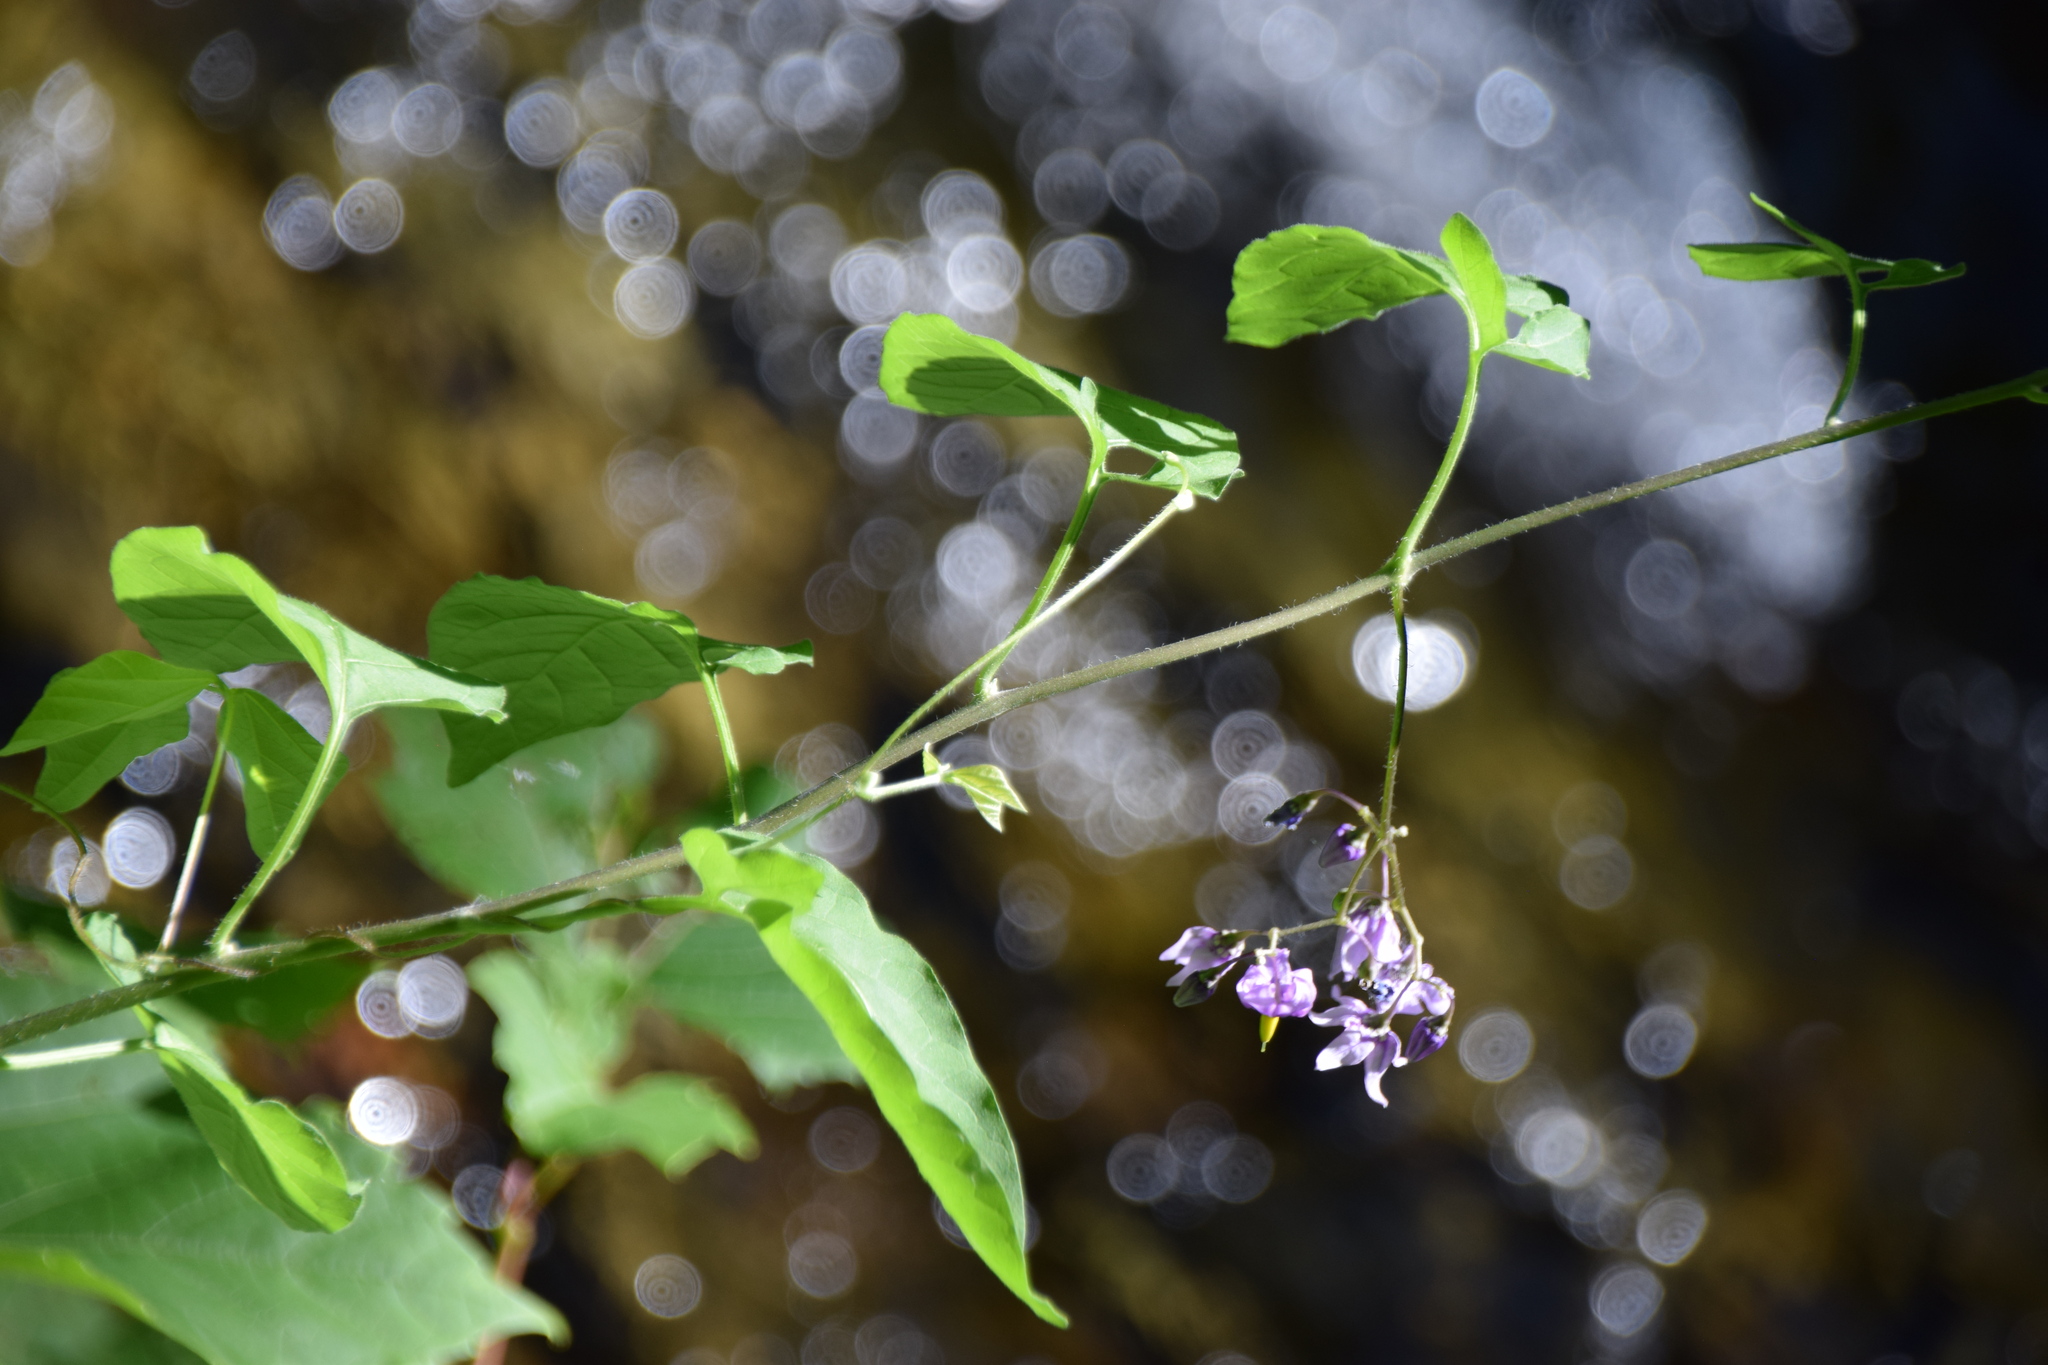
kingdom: Plantae
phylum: Tracheophyta
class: Magnoliopsida
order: Solanales
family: Solanaceae
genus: Solanum
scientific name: Solanum dulcamara
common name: Climbing nightshade
